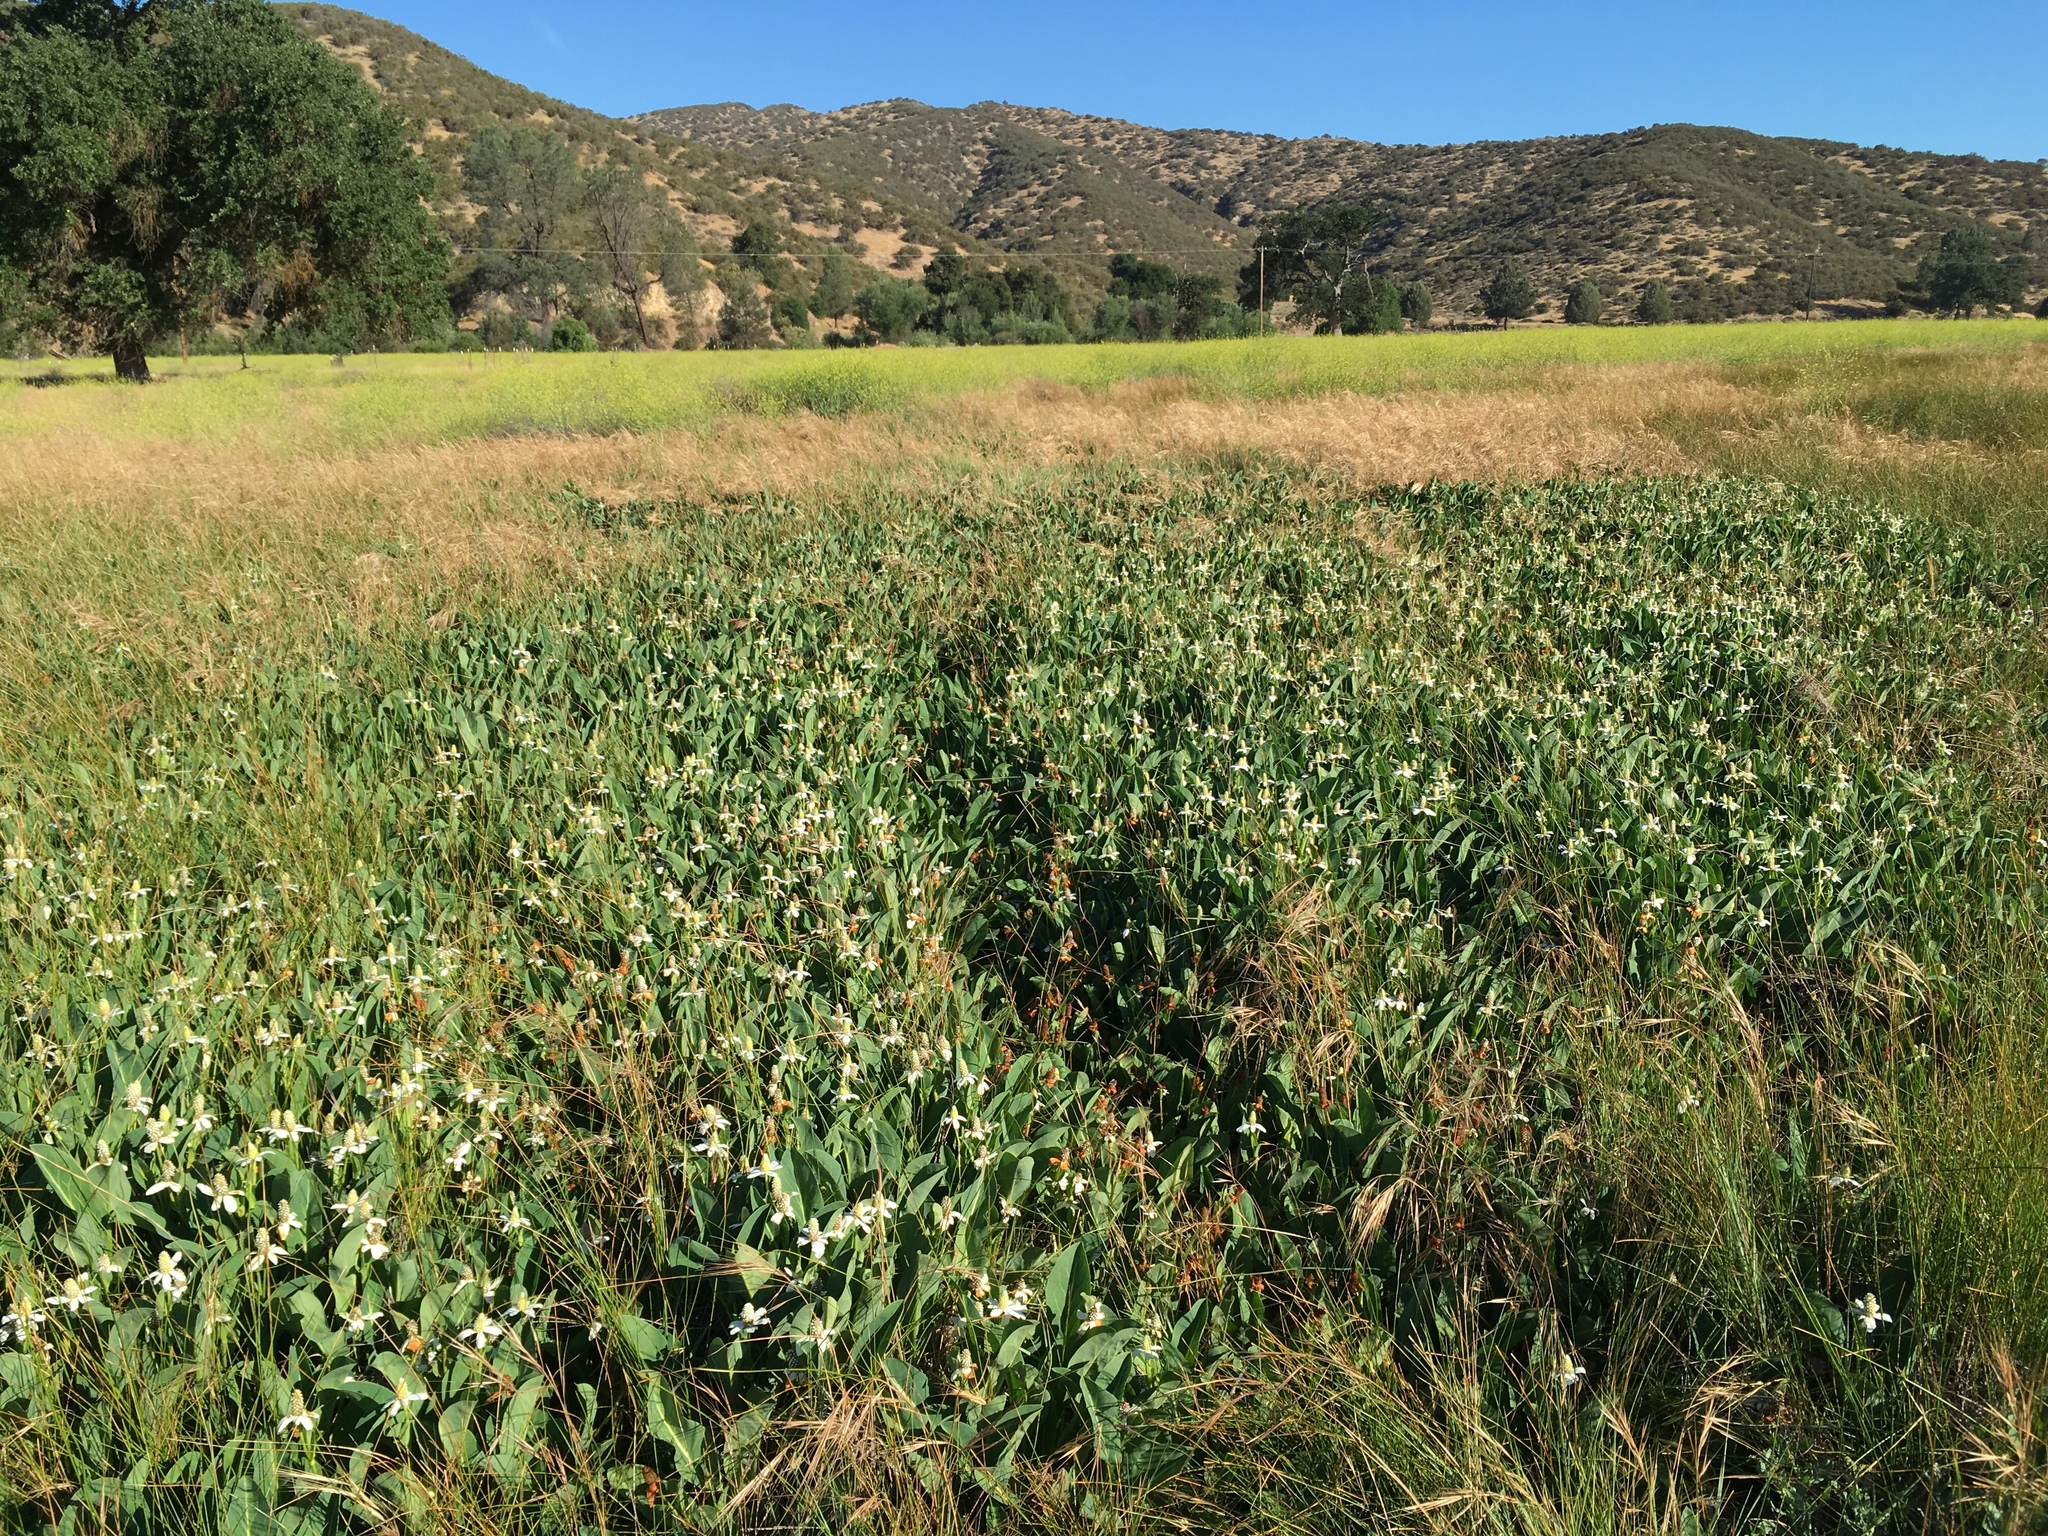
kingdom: Plantae
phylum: Tracheophyta
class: Magnoliopsida
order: Piperales
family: Saururaceae
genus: Anemopsis
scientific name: Anemopsis californica
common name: Apache-beads
